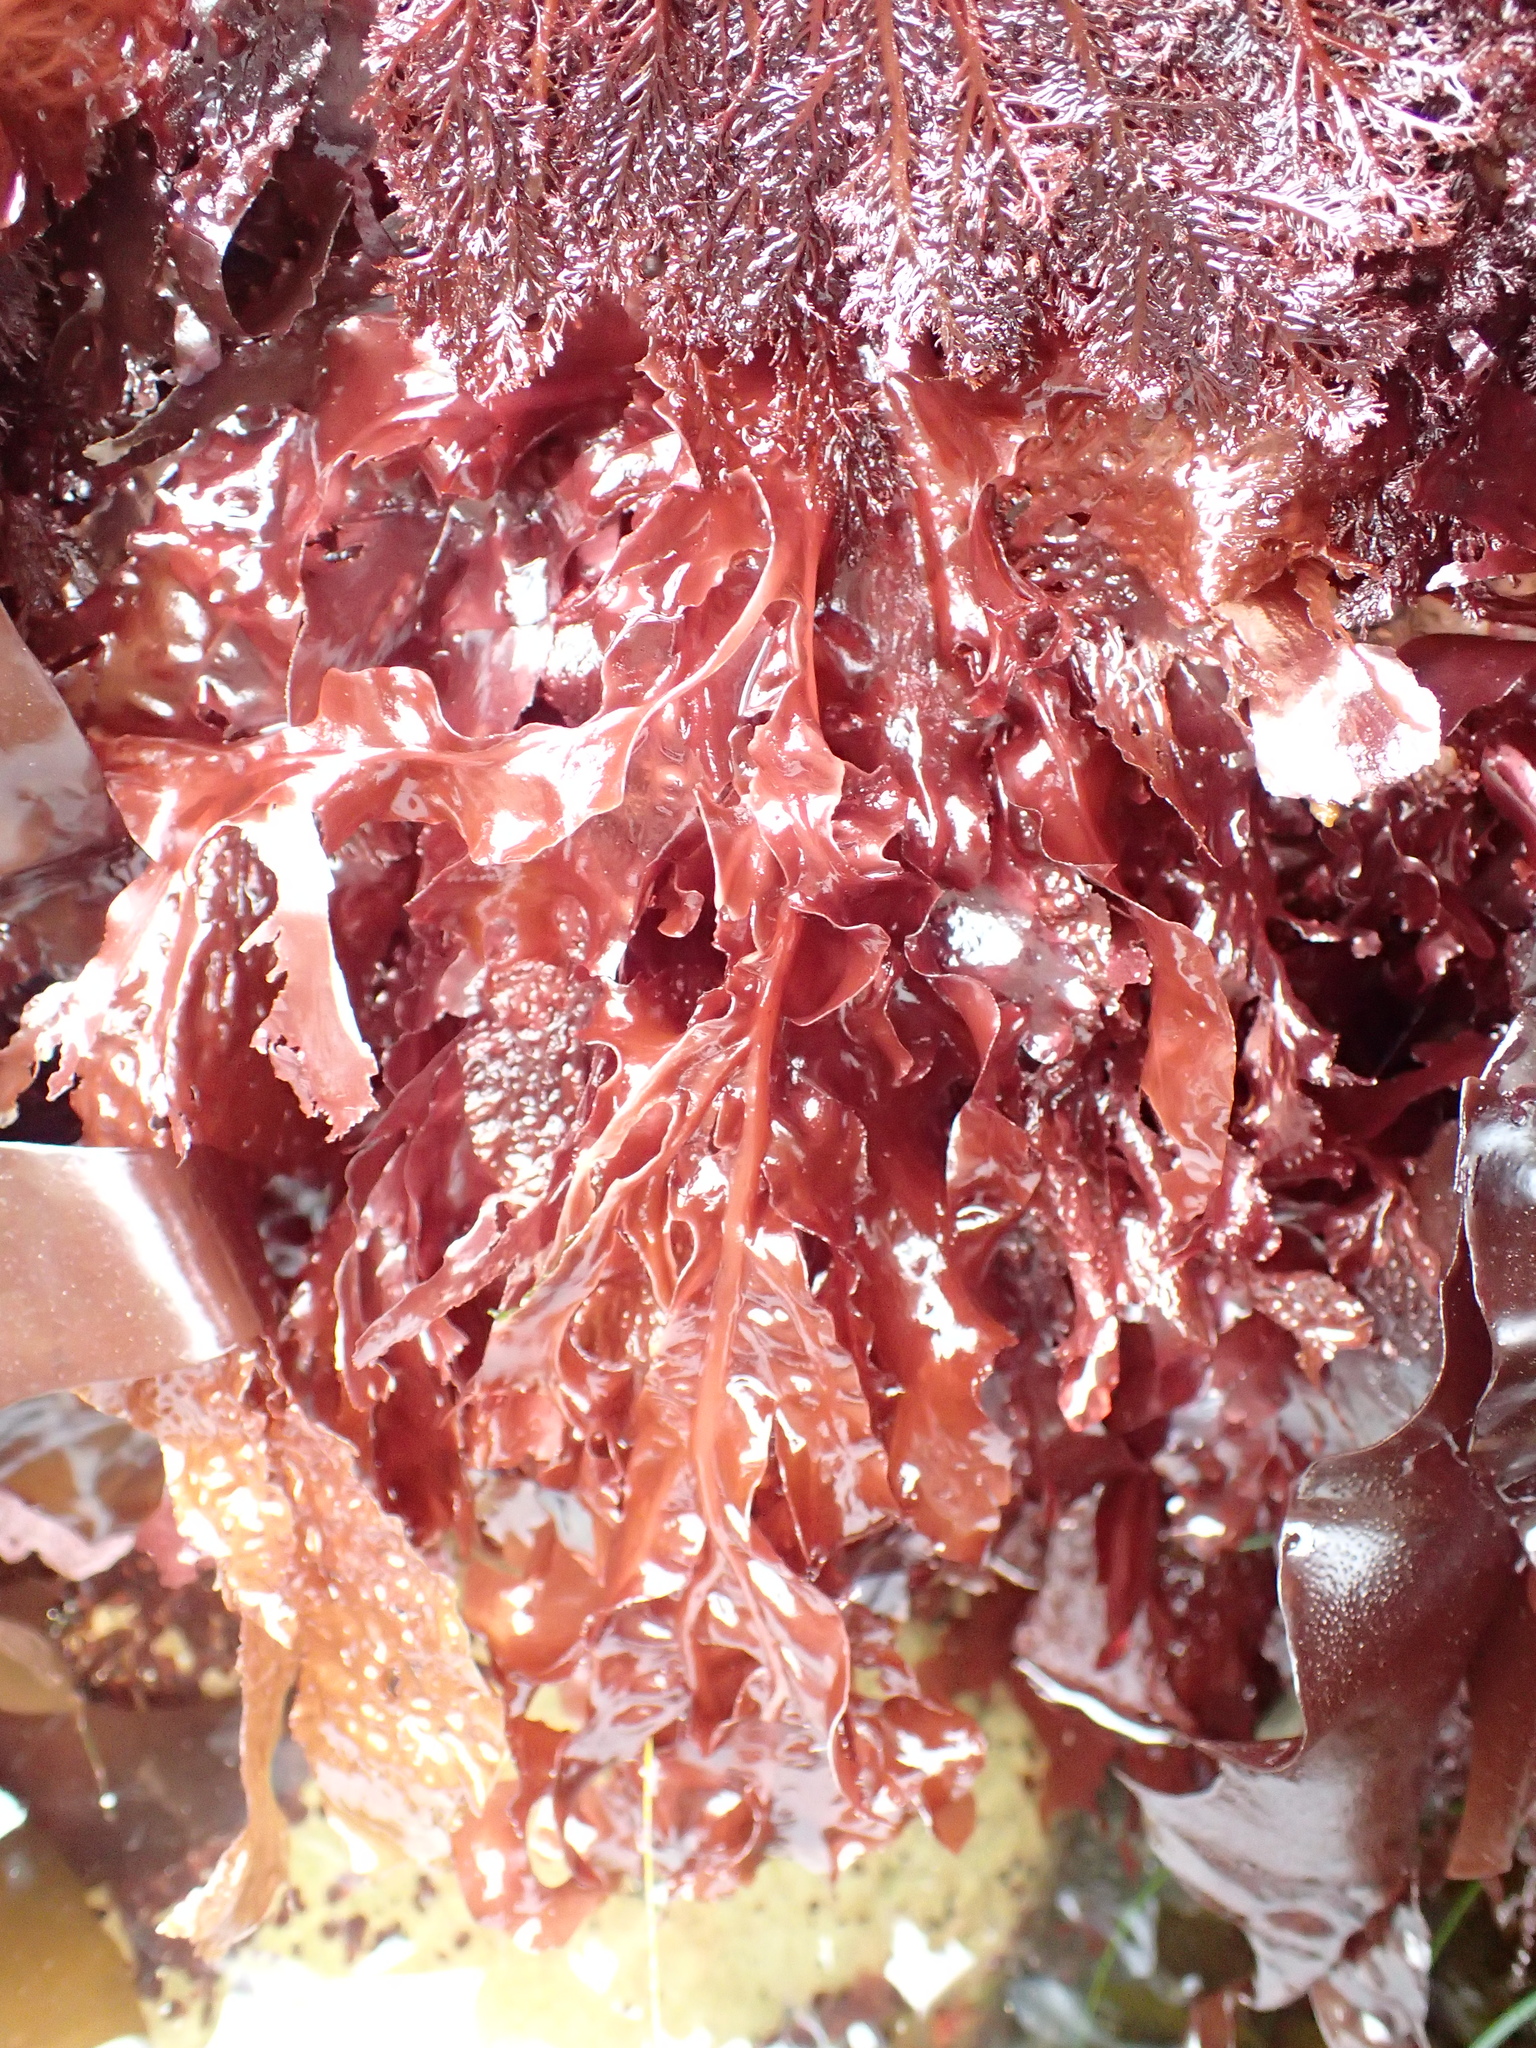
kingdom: Plantae
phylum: Rhodophyta
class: Florideophyceae
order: Gigartinales
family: Kallymeniaceae
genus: Erythrophyllum
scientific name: Erythrophyllum delesserioides
